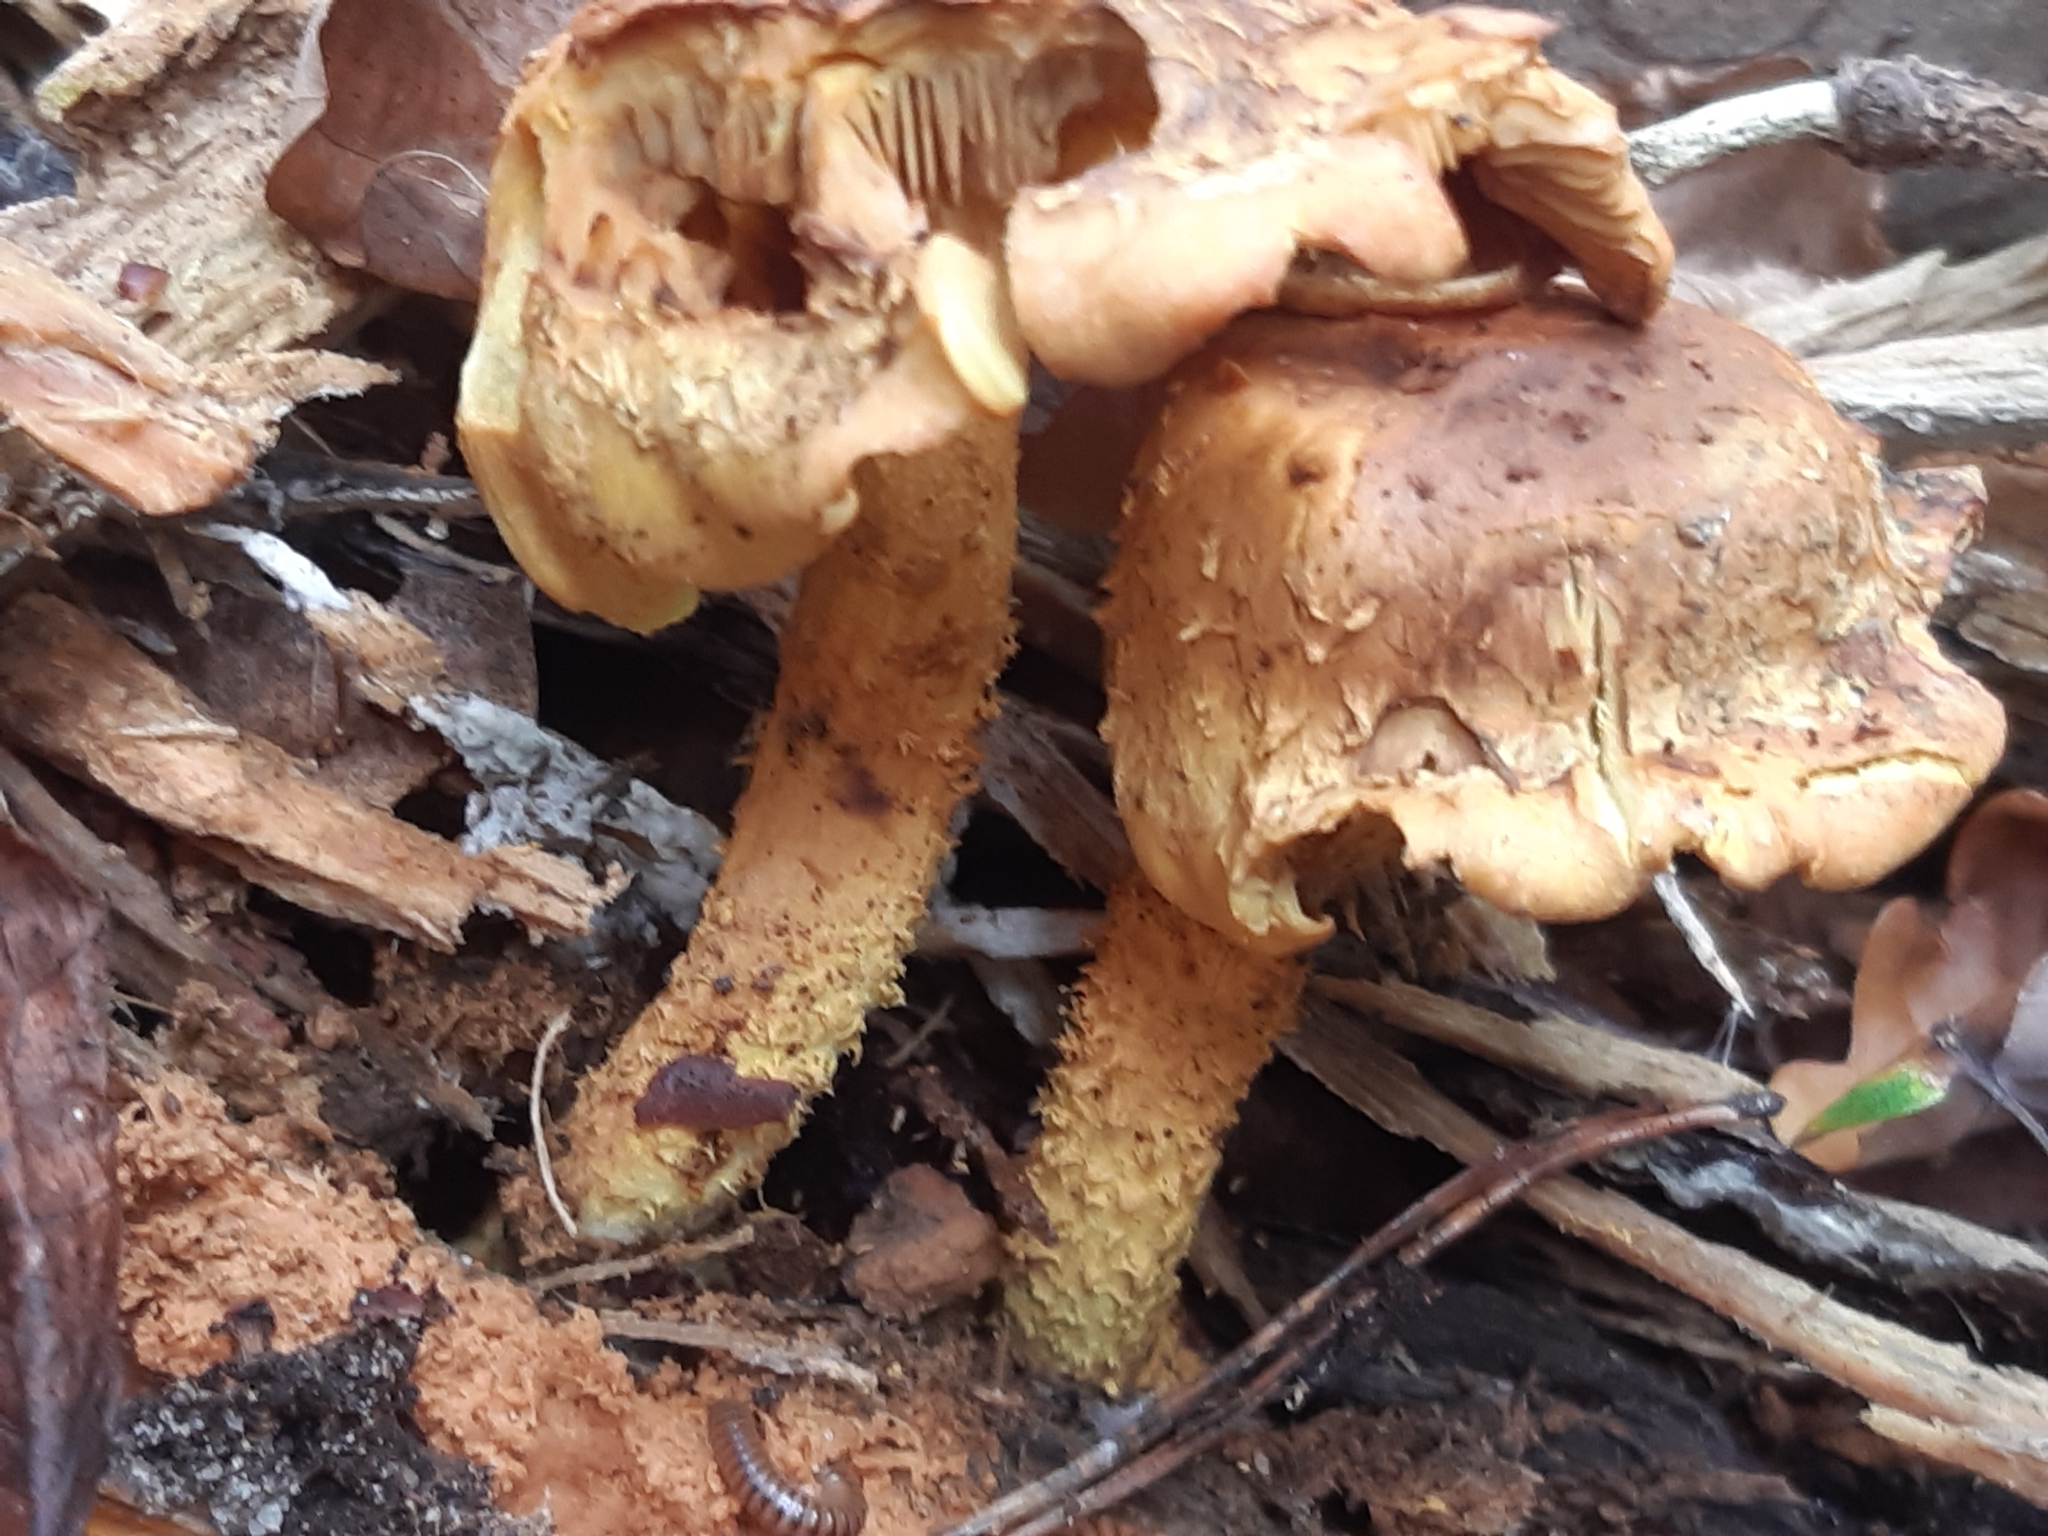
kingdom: Fungi
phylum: Basidiomycota
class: Agaricomycetes
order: Agaricales
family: Strophariaceae
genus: Pholiota
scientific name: Pholiota flammans
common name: Flaming scalycap
